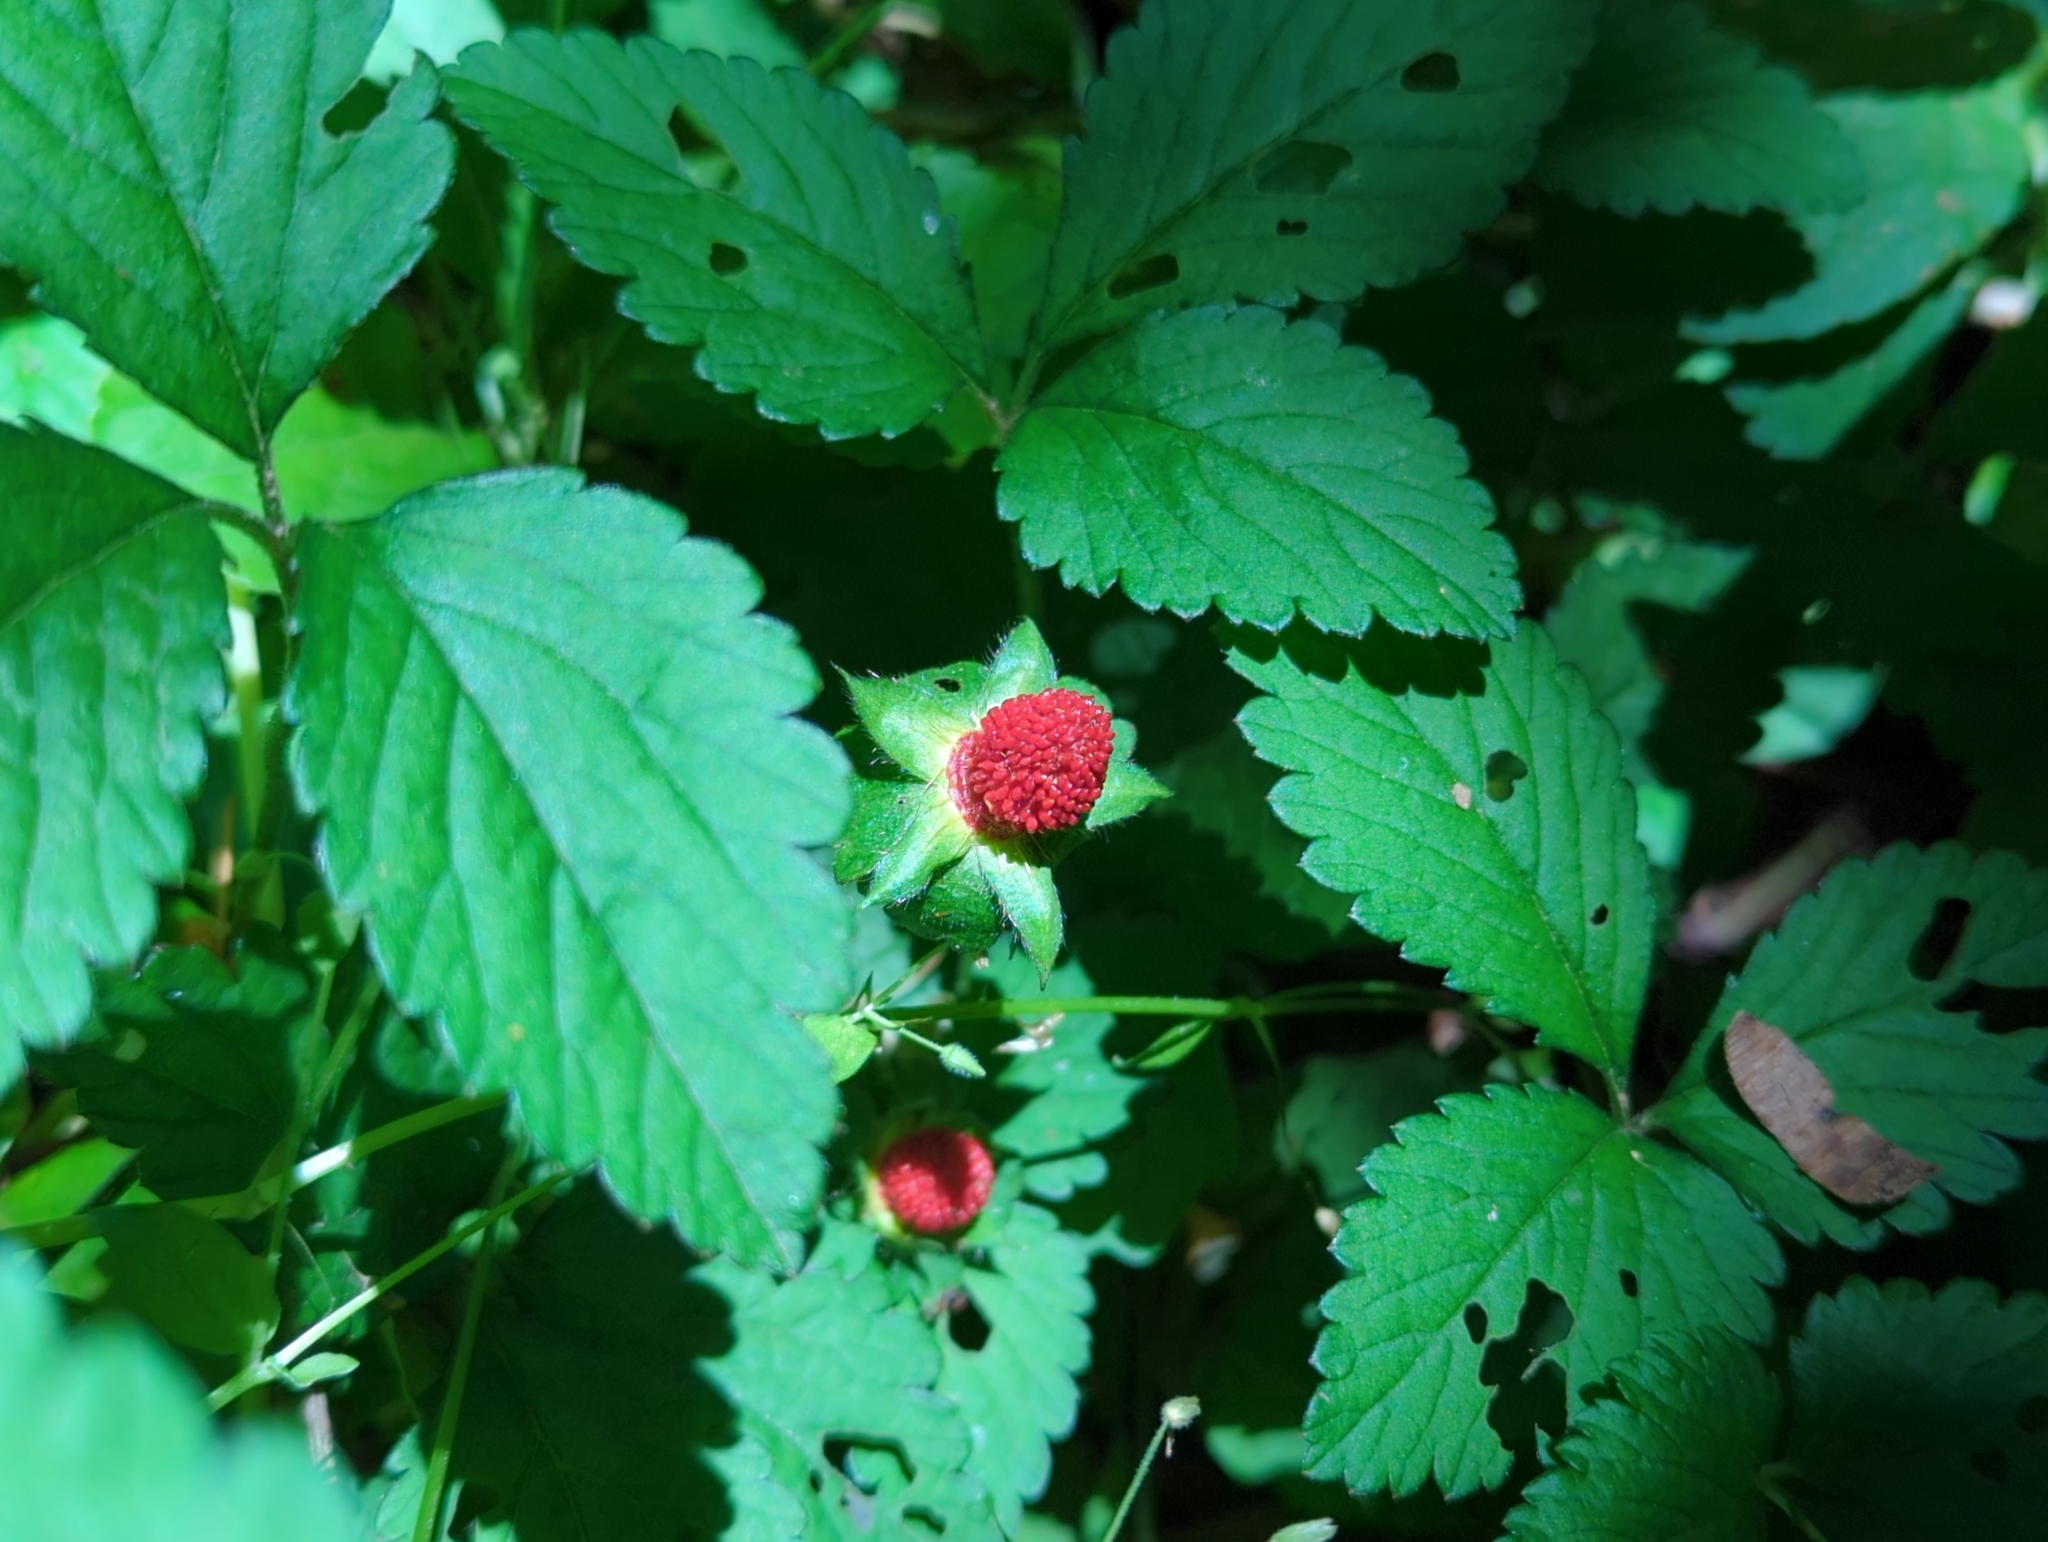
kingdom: Plantae
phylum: Tracheophyta
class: Magnoliopsida
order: Rosales
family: Rosaceae
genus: Potentilla
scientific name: Potentilla indica
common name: Yellow-flowered strawberry
